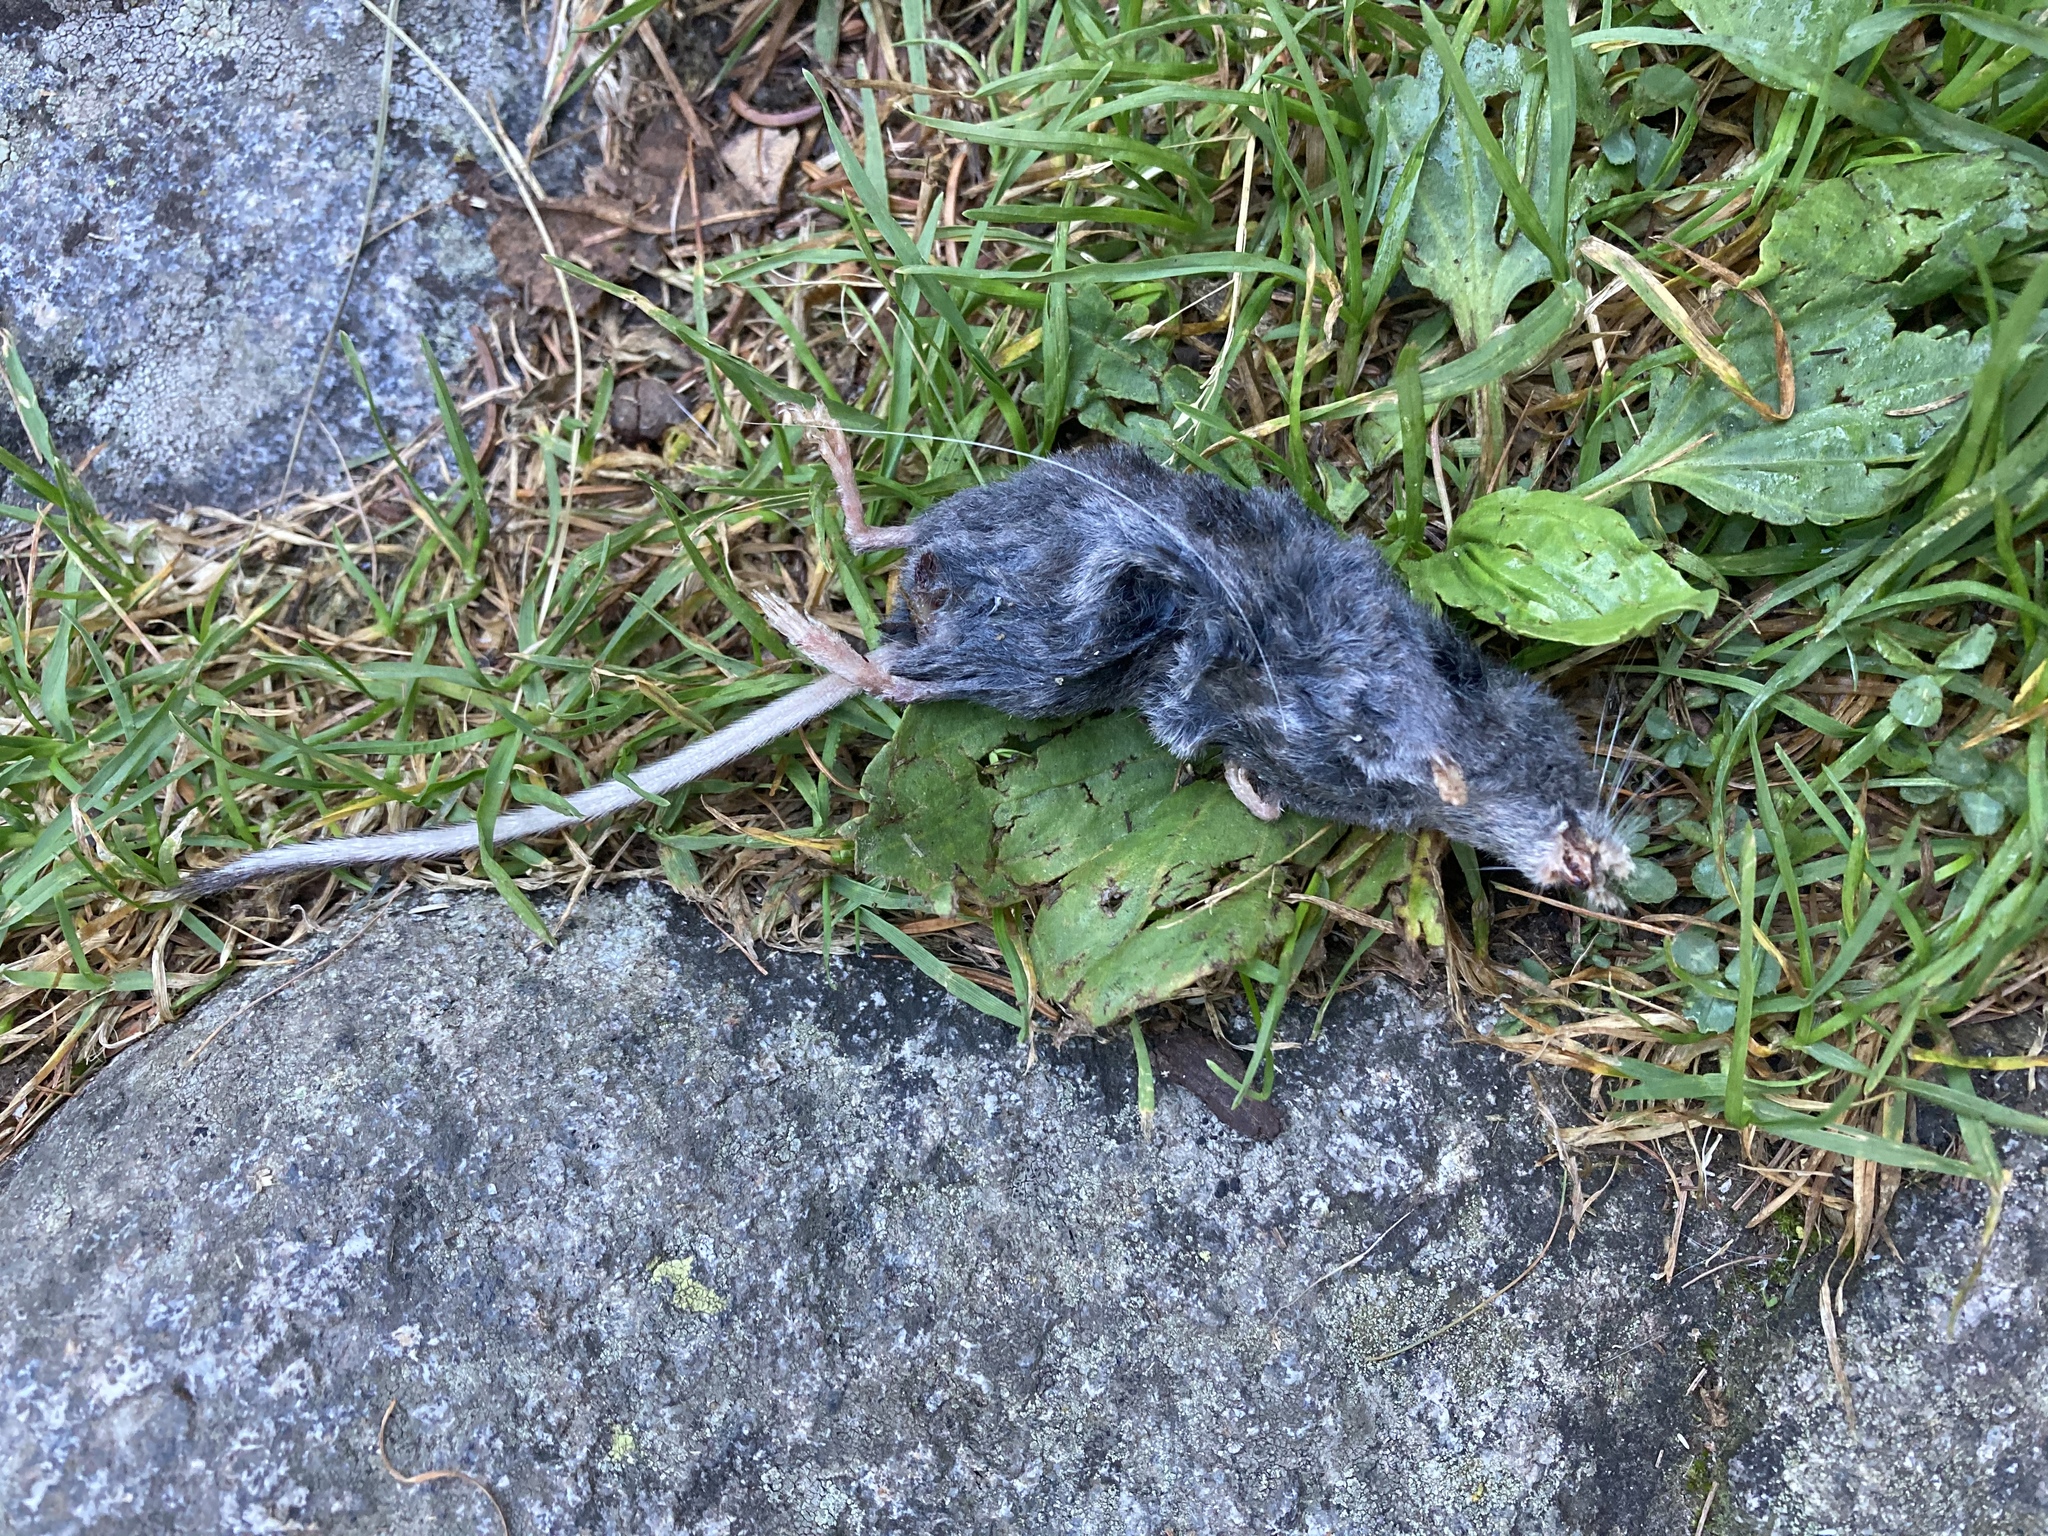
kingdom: Animalia
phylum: Chordata
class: Mammalia
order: Soricomorpha
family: Soricidae
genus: Sorex
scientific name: Sorex alpinus
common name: Alpine shrew
